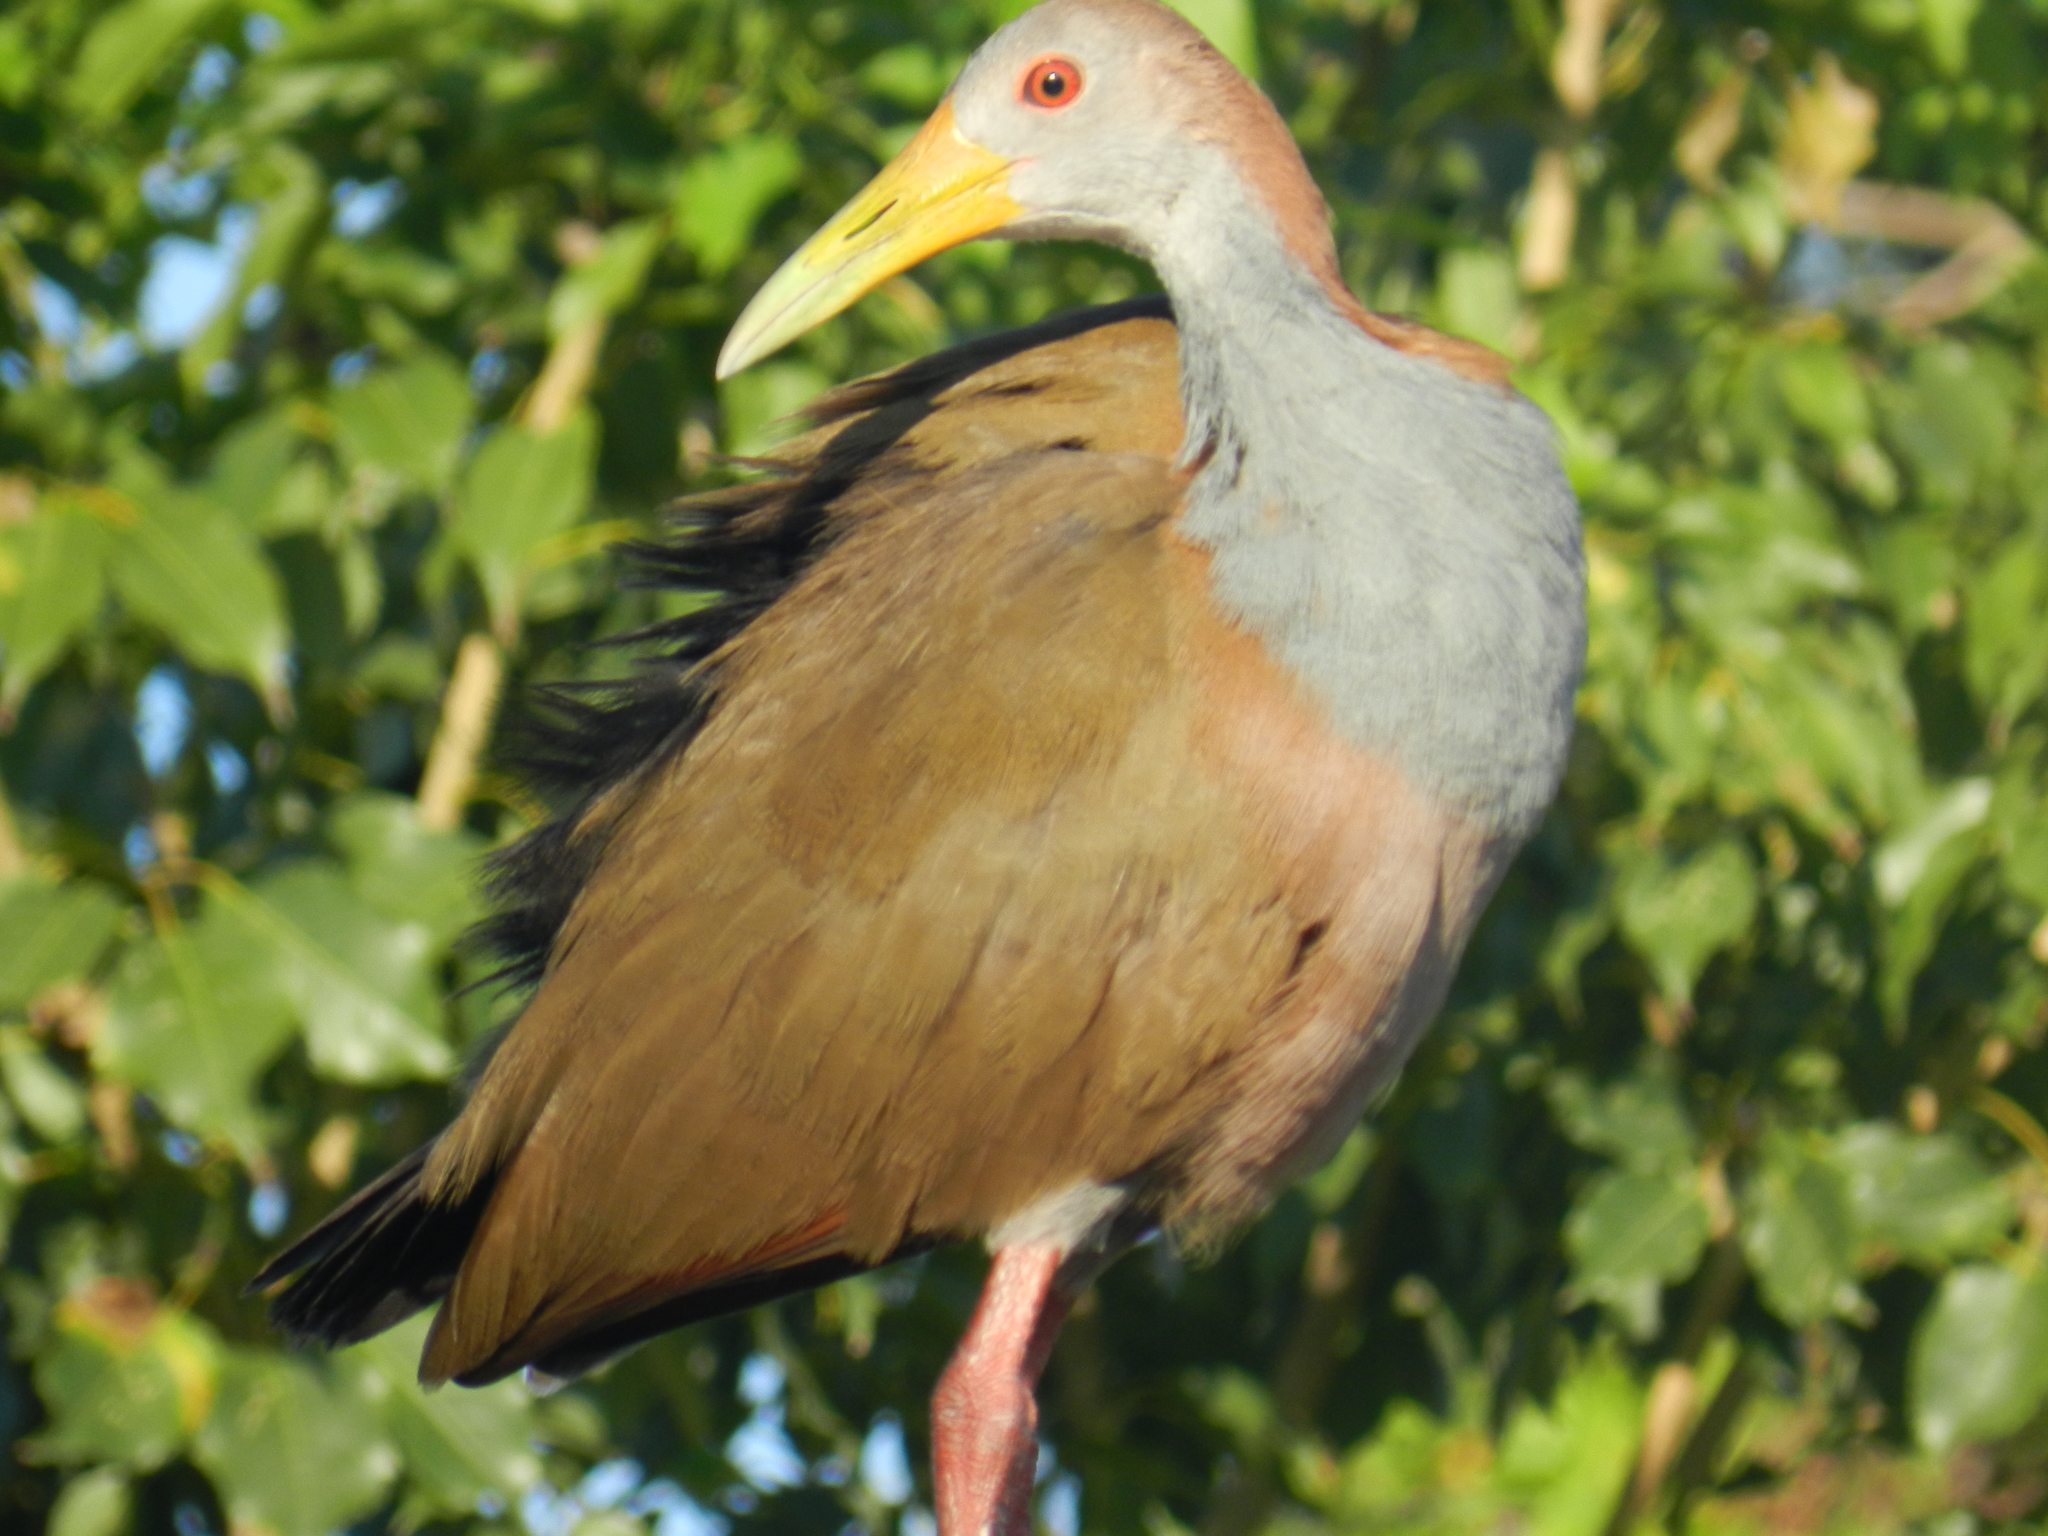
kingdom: Animalia
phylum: Chordata
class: Aves
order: Gruiformes
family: Rallidae
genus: Aramides
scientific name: Aramides ypecaha
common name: Giant wood rail
